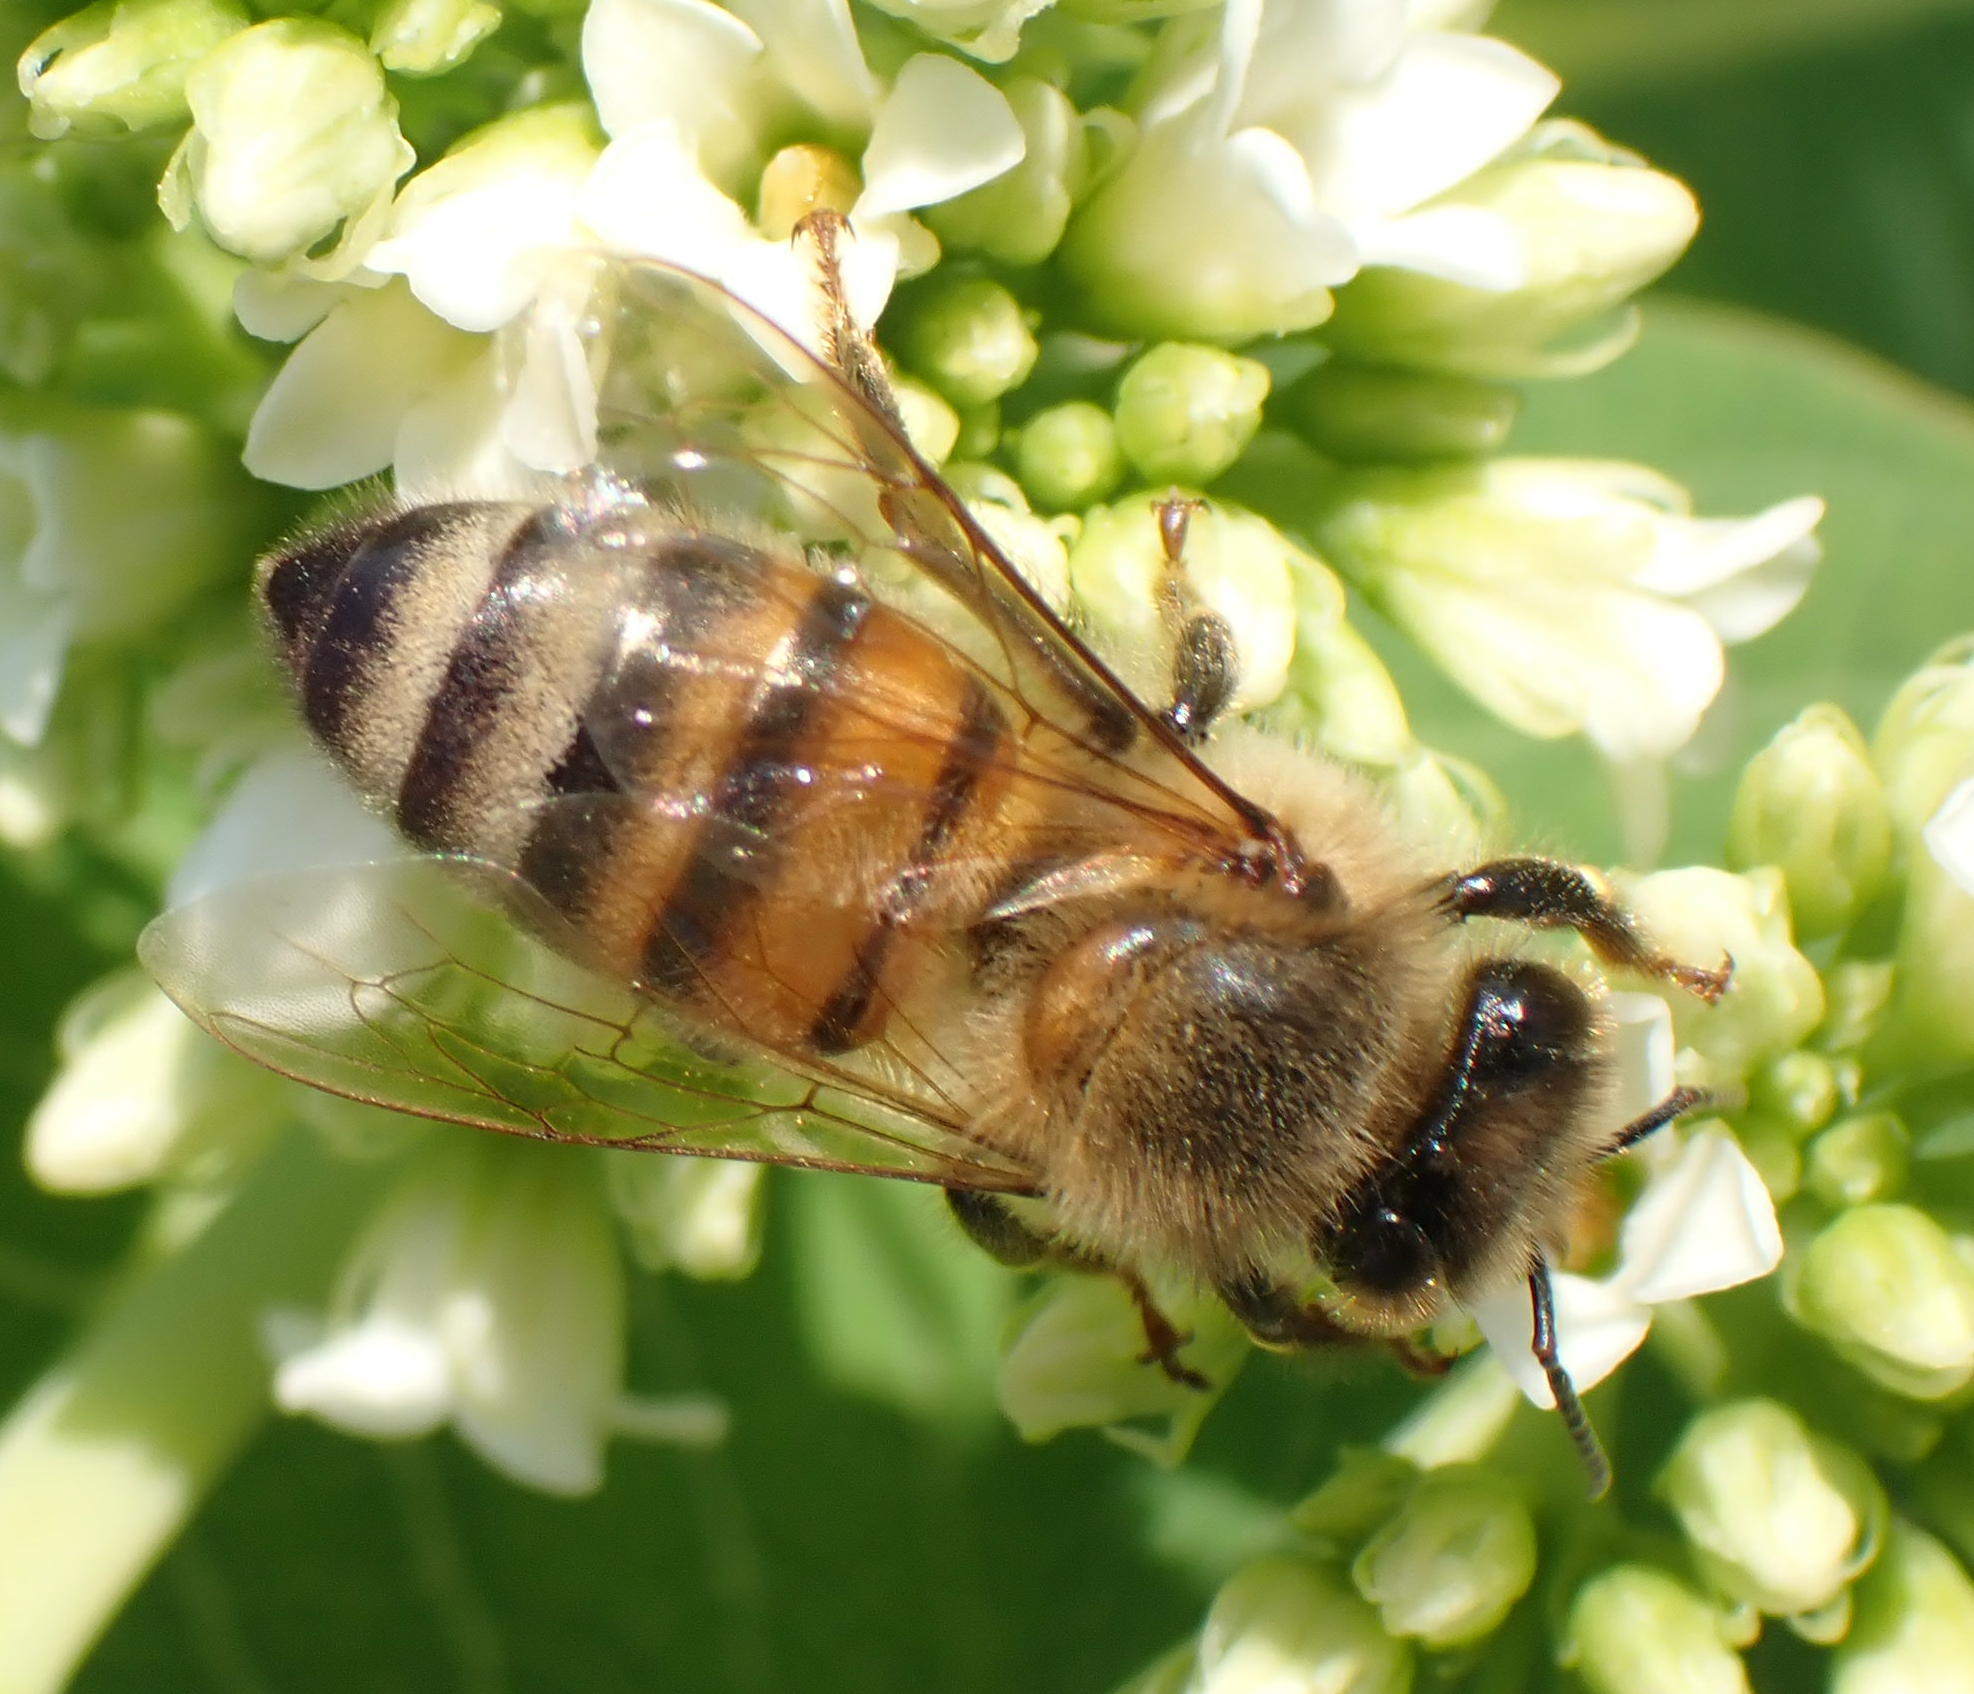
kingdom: Animalia
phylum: Arthropoda
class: Insecta
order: Hymenoptera
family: Apidae
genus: Apis
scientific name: Apis mellifera
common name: Honey bee
